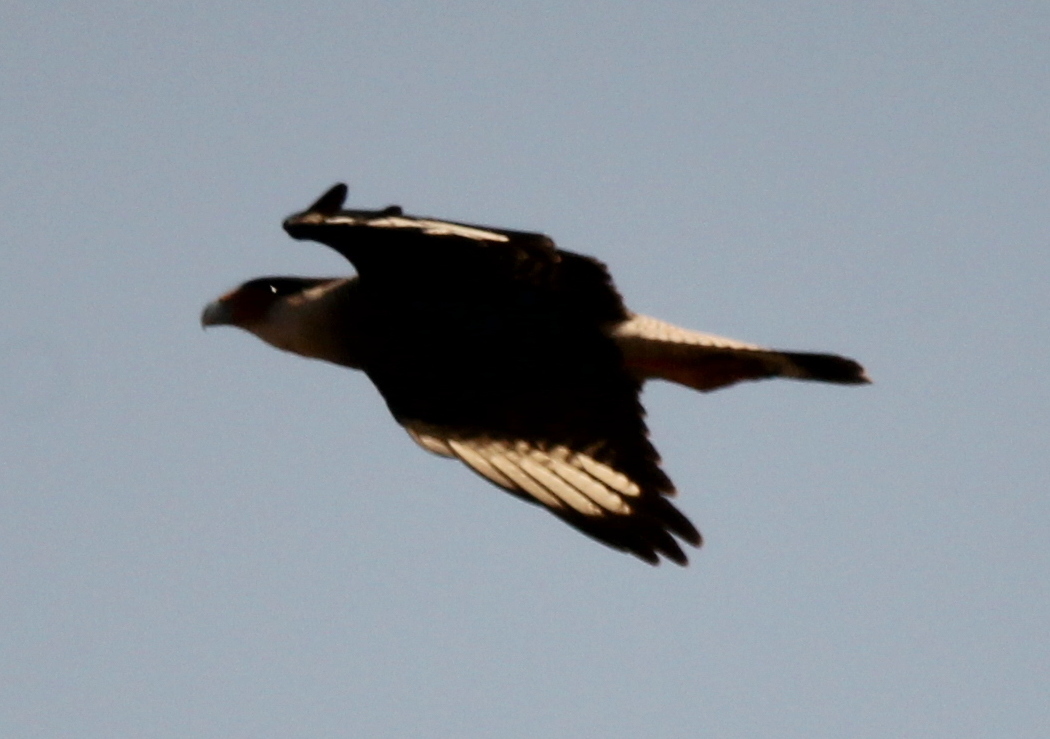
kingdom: Animalia
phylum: Chordata
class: Aves
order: Falconiformes
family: Falconidae
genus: Caracara
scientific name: Caracara plancus
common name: Southern caracara
